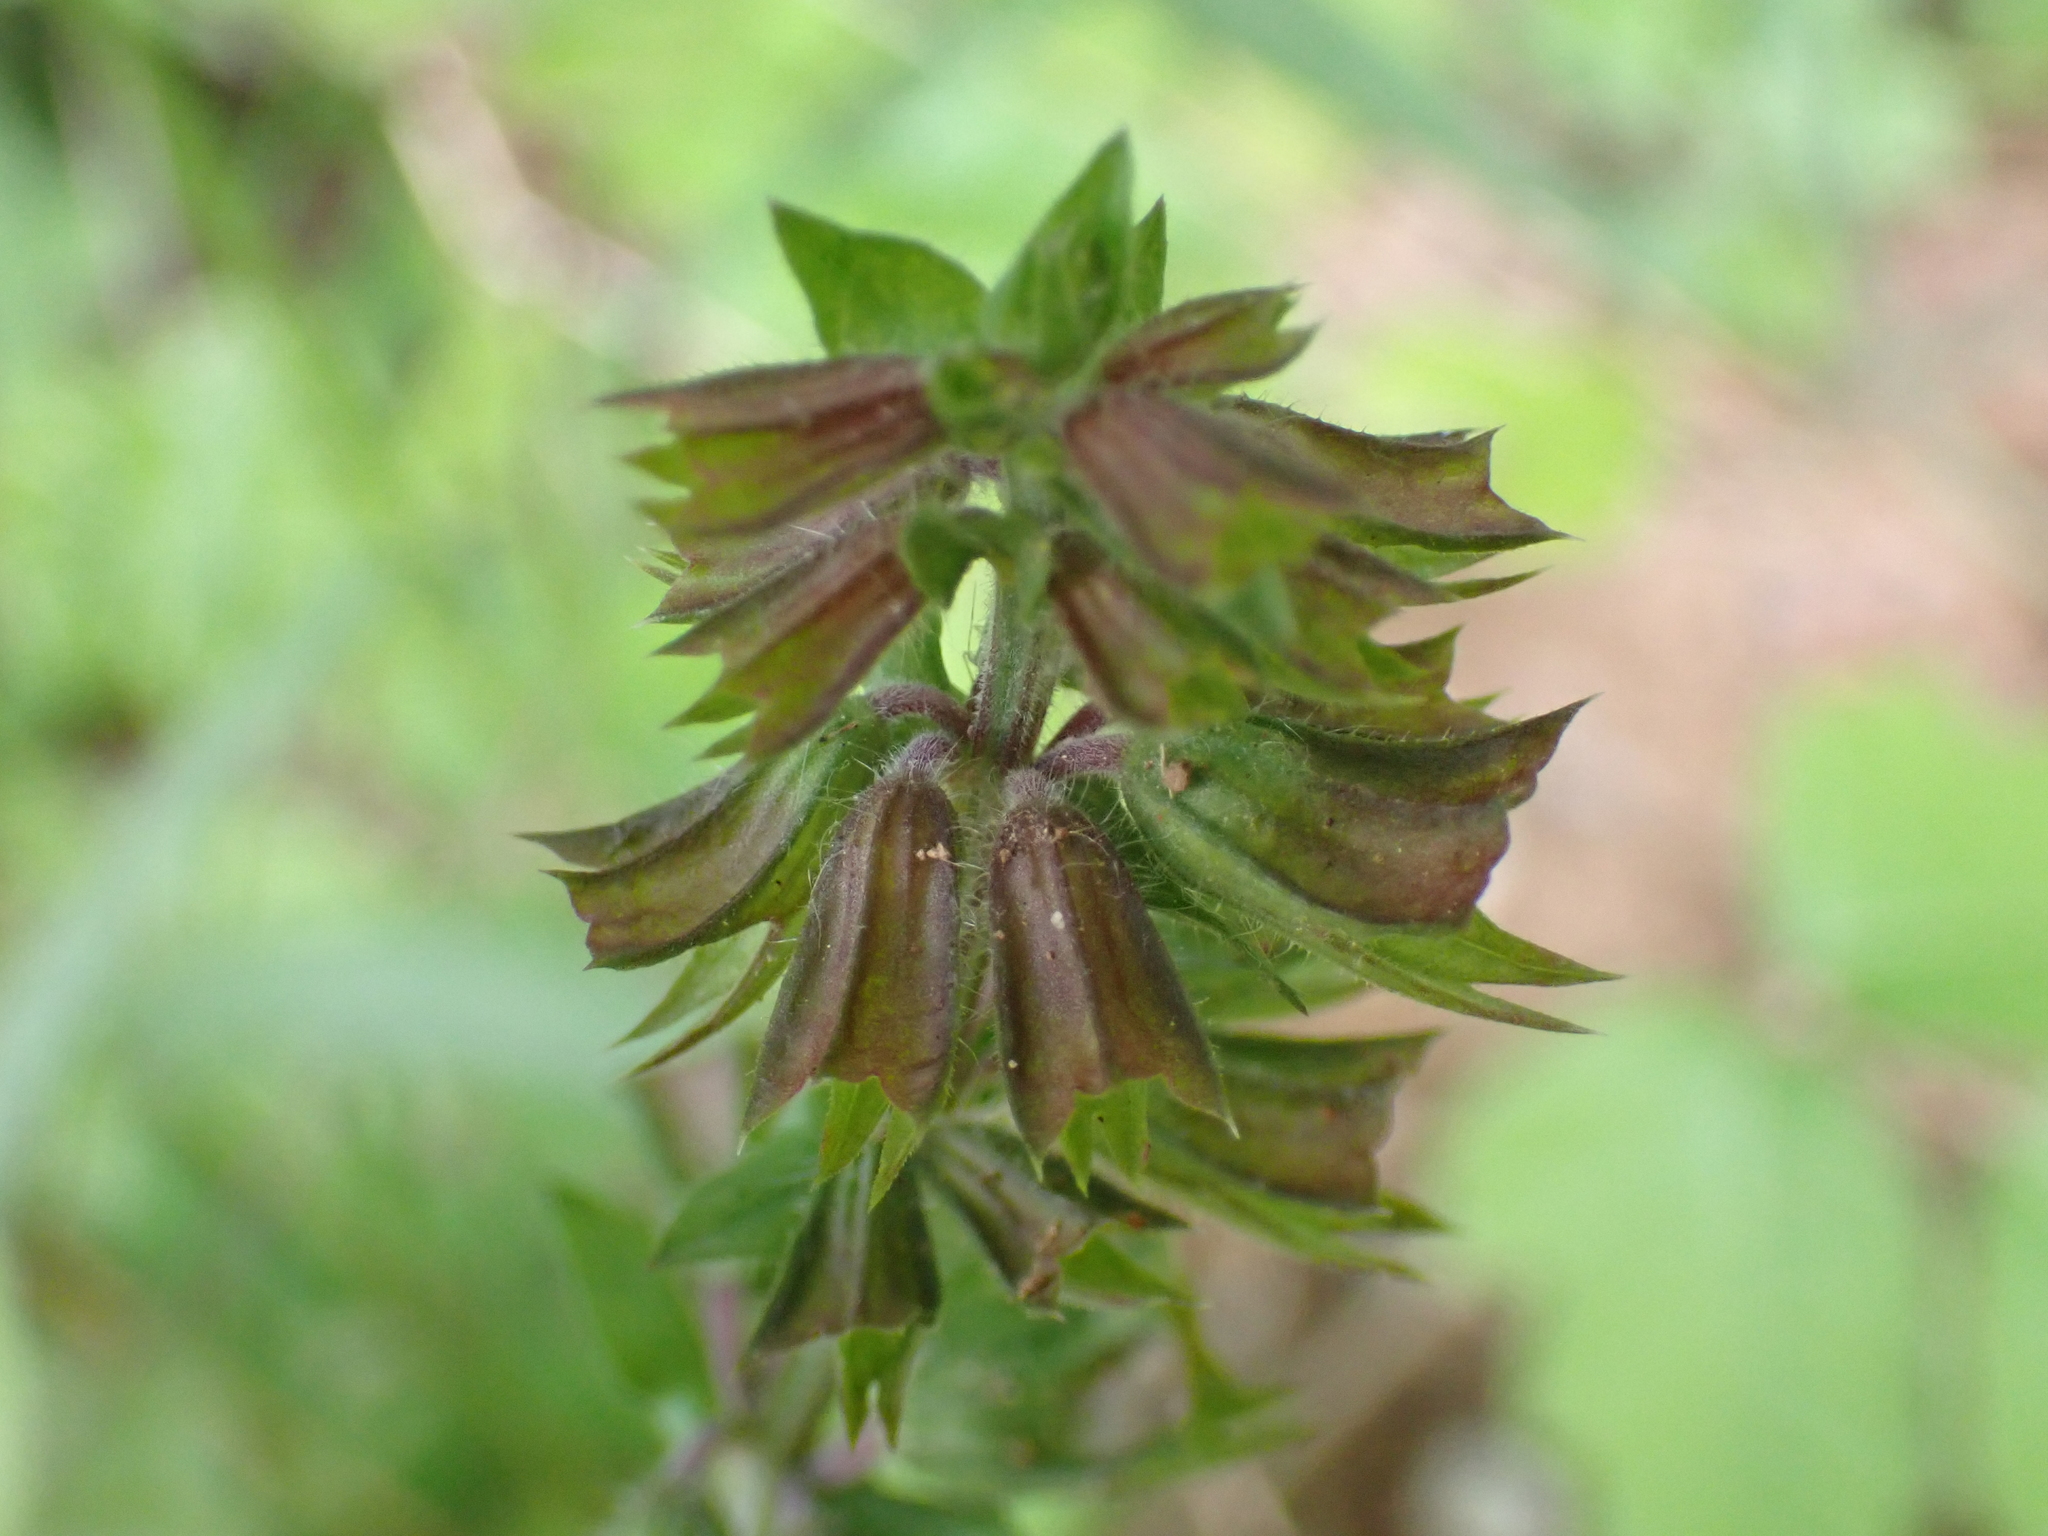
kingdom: Plantae
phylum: Tracheophyta
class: Magnoliopsida
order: Lamiales
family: Lamiaceae
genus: Salvia
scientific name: Salvia lyrata
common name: Cancerweed
